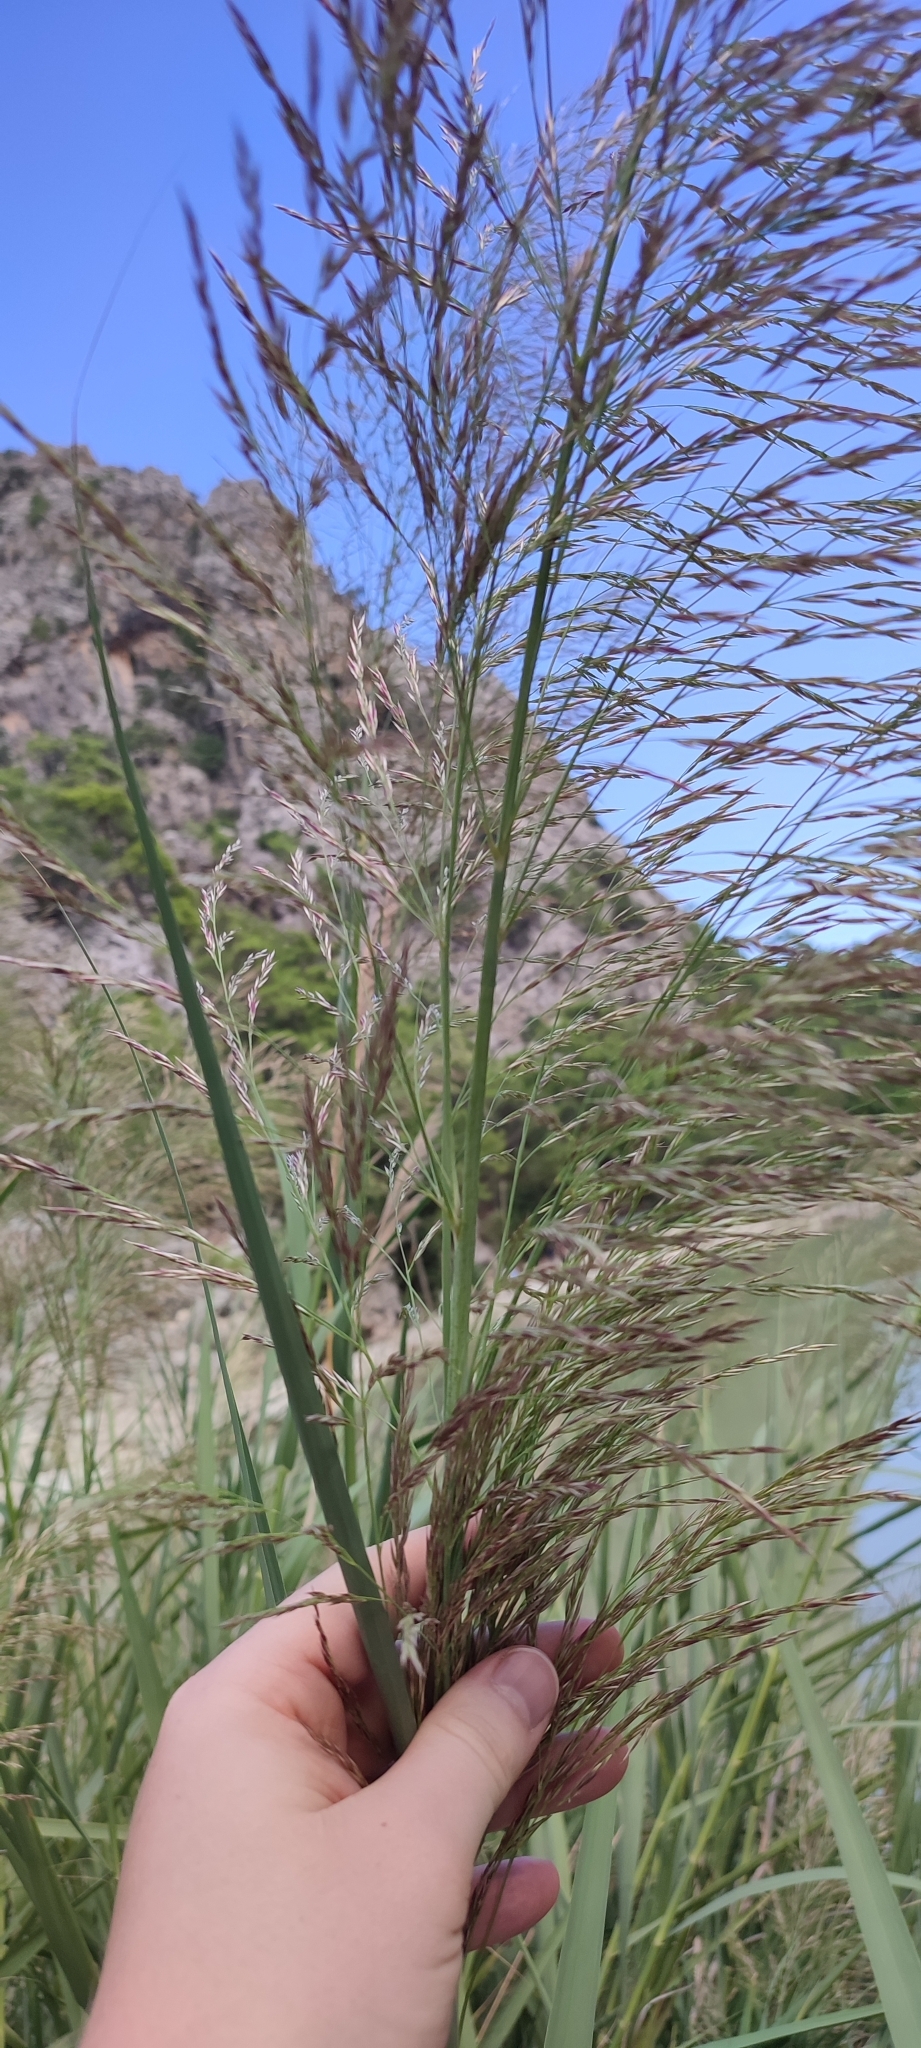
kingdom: Plantae
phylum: Tracheophyta
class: Liliopsida
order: Poales
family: Poaceae
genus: Arundo
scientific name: Arundo donax
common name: Giant reed
